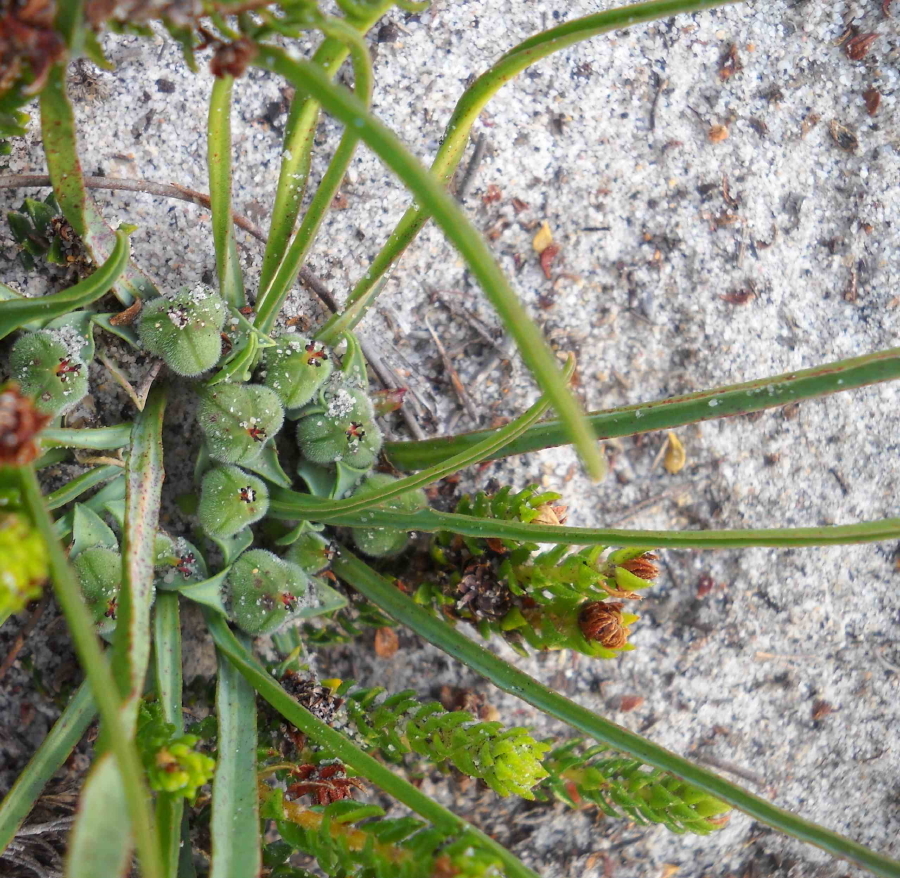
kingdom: Plantae
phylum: Tracheophyta
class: Magnoliopsida
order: Malpighiales
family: Euphorbiaceae
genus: Euphorbia
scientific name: Euphorbia silenifolia
